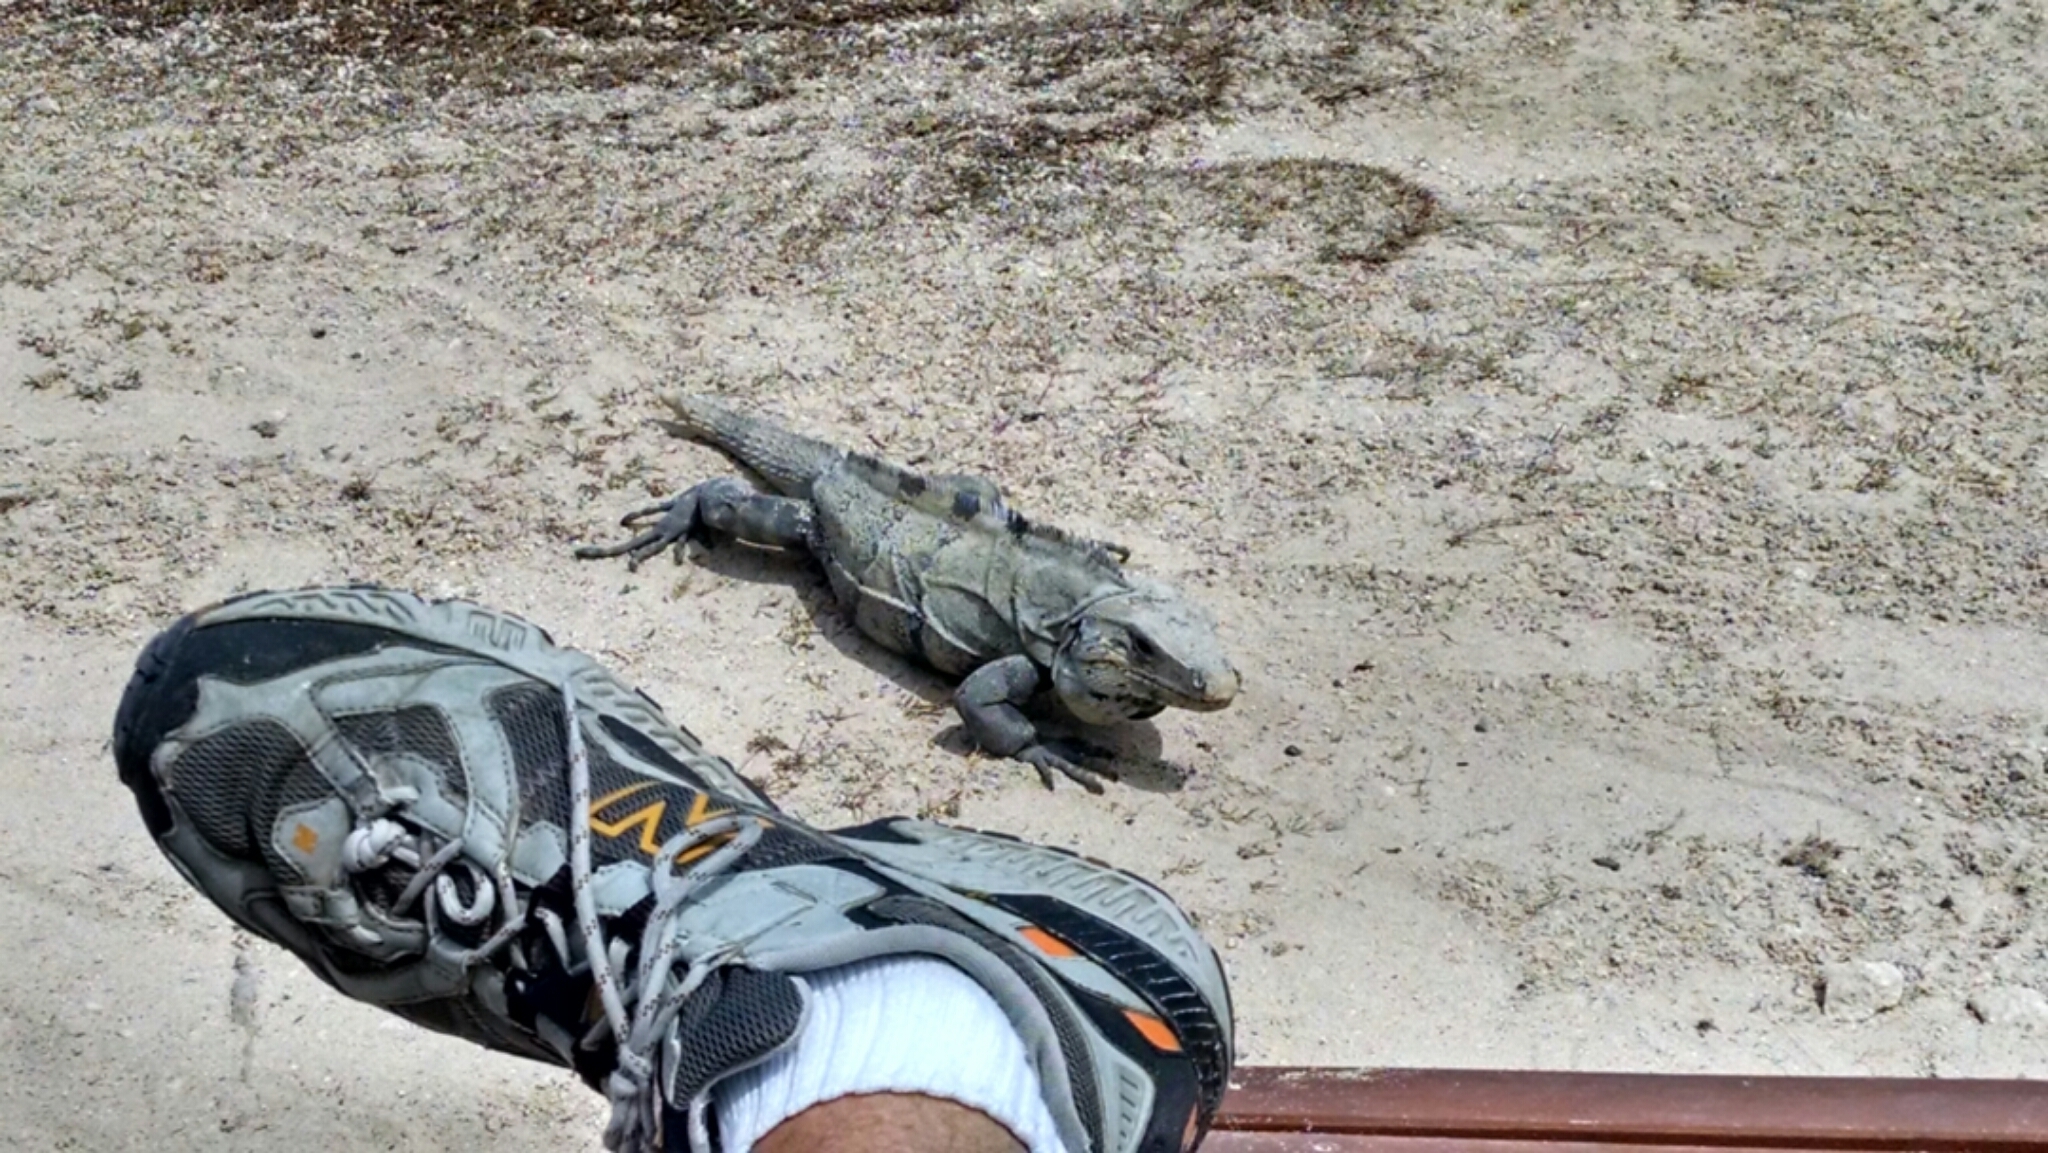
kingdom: Animalia
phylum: Chordata
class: Squamata
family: Iguanidae
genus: Ctenosaura
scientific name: Ctenosaura similis
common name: Black spiny-tailed iguana
